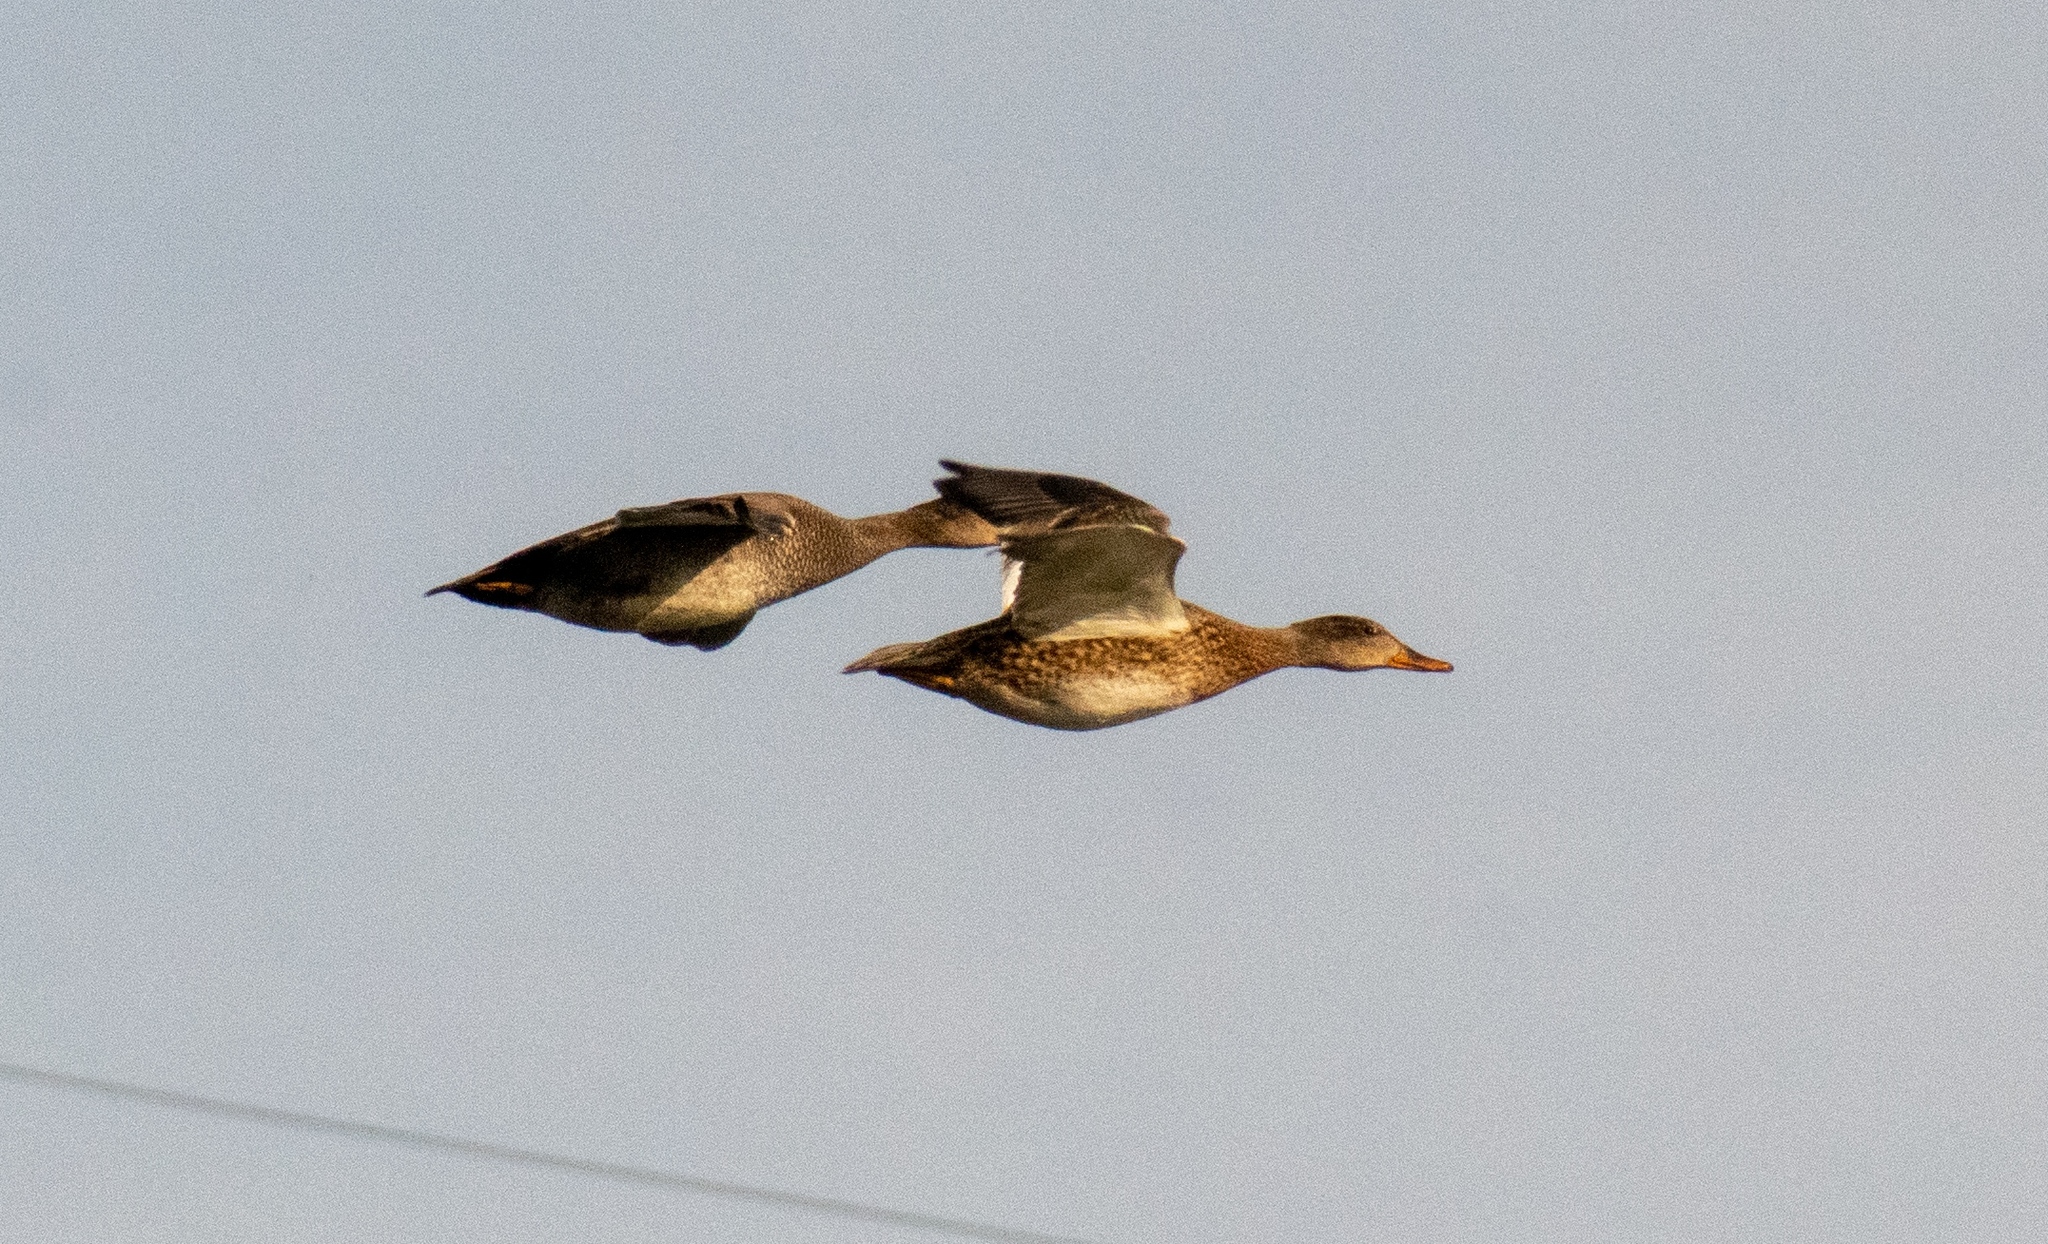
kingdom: Animalia
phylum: Chordata
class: Aves
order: Anseriformes
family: Anatidae
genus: Mareca
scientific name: Mareca strepera
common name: Gadwall
